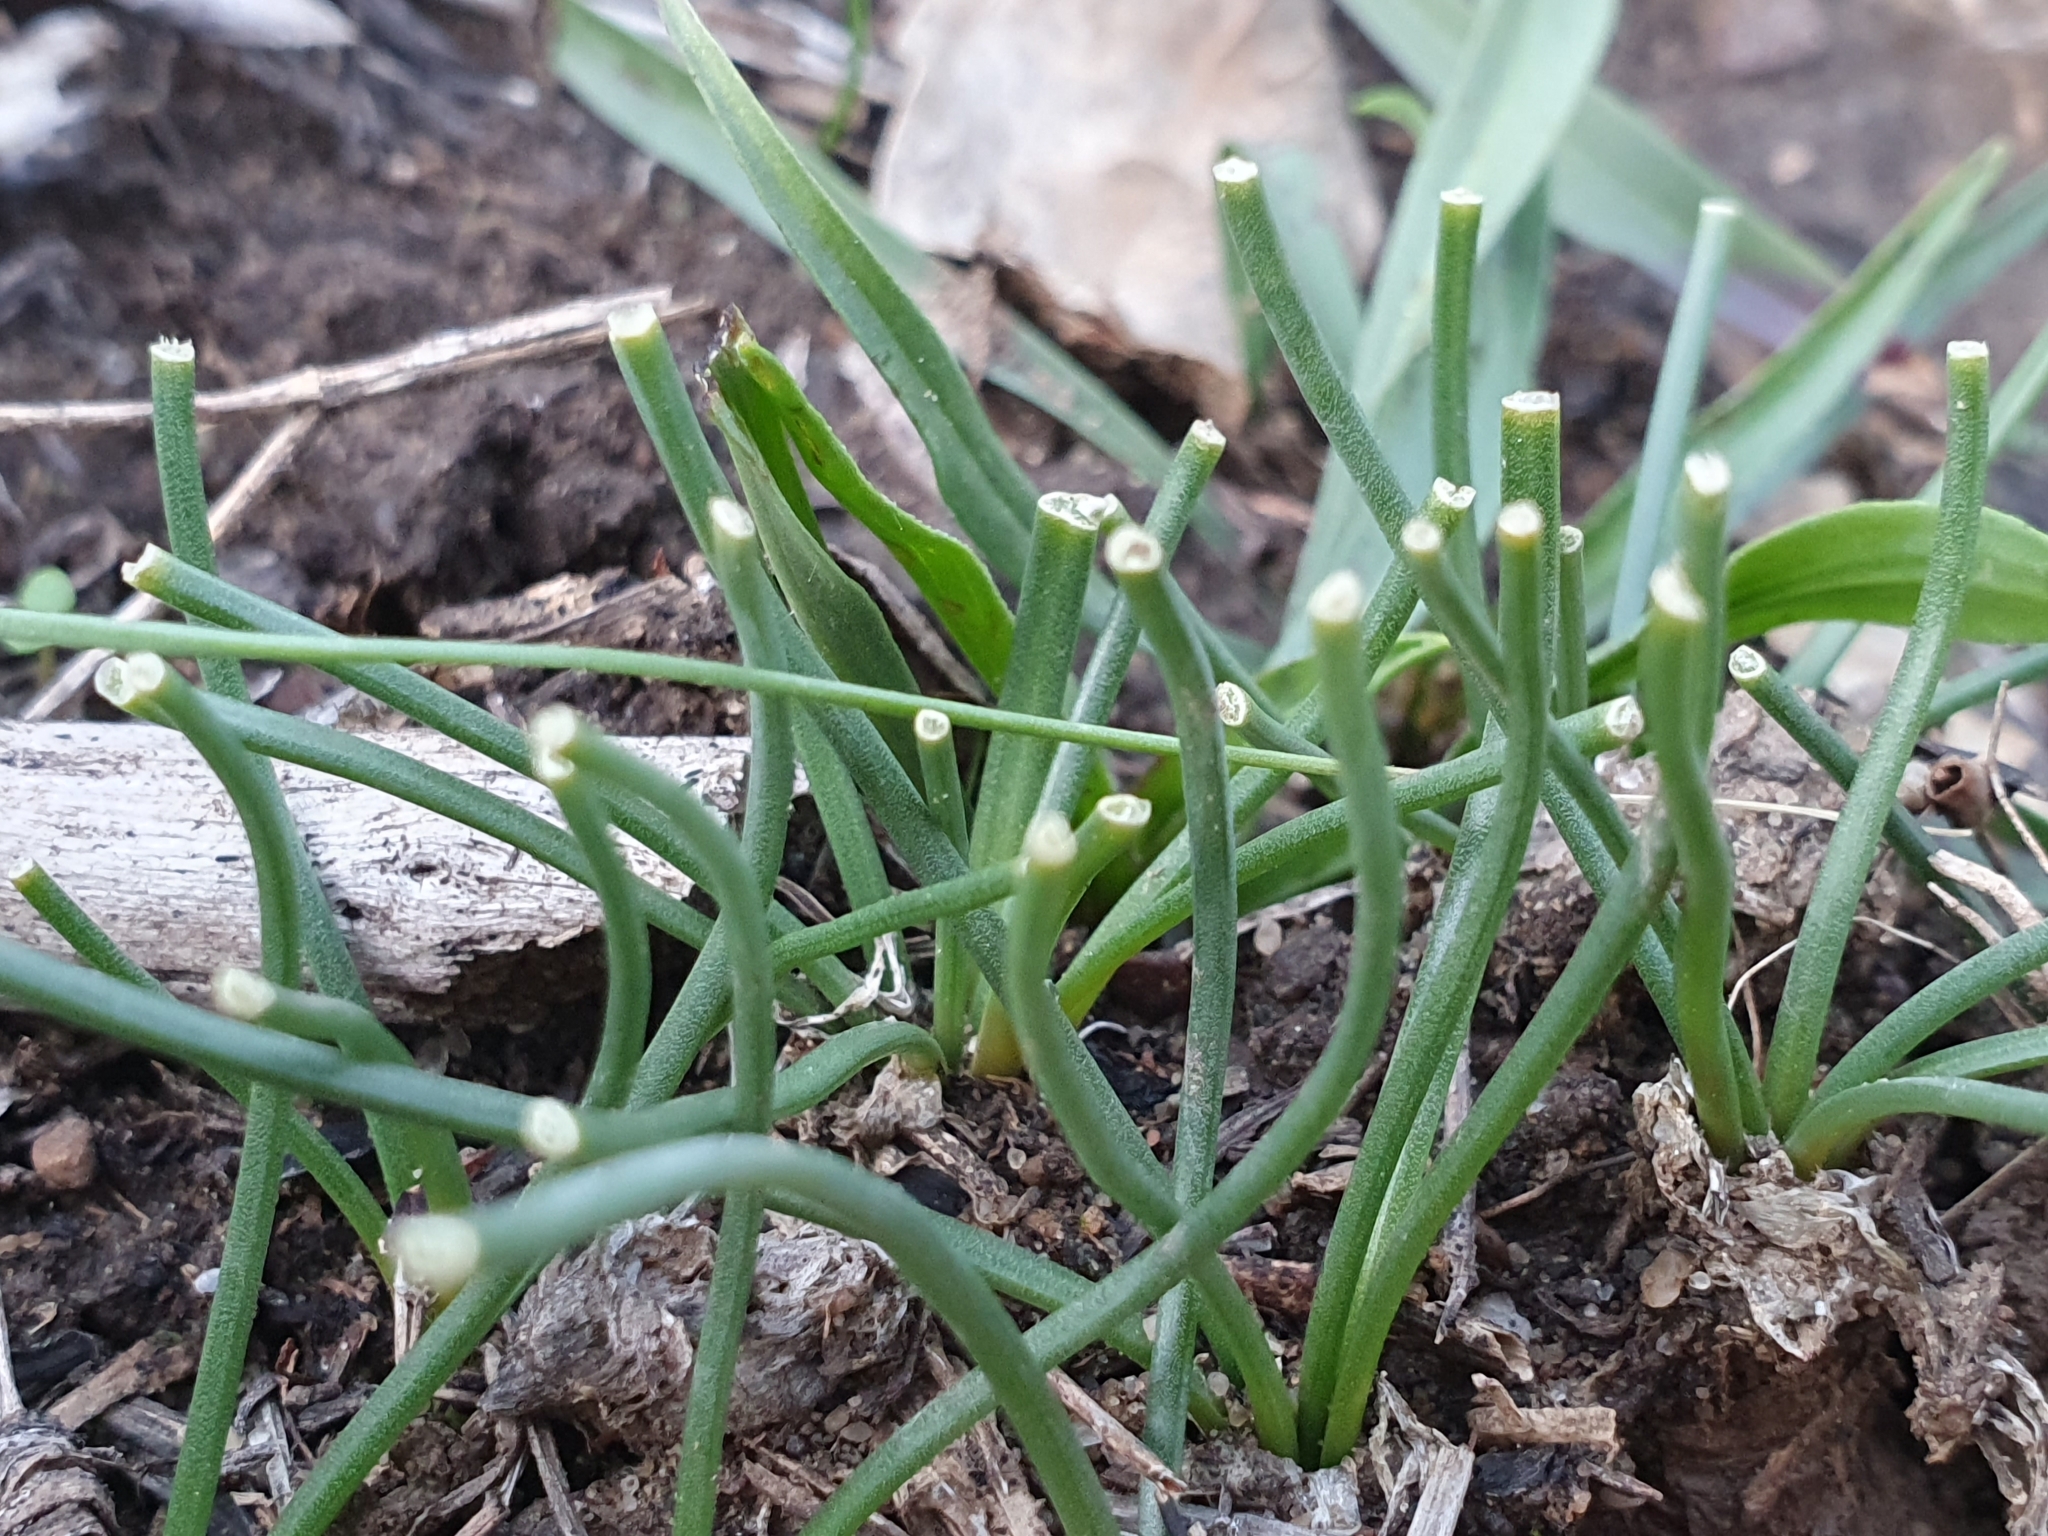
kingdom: Plantae
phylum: Tracheophyta
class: Liliopsida
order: Asparagales
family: Asparagaceae
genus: Drimia
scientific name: Drimia fugax
